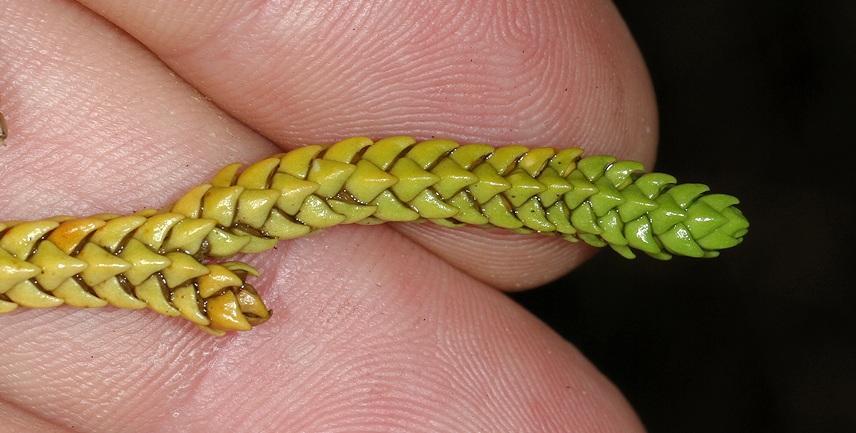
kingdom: Plantae
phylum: Tracheophyta
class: Lycopodiopsida
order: Lycopodiales
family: Lycopodiaceae
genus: Phlegmariurus
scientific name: Phlegmariurus gnidioides
